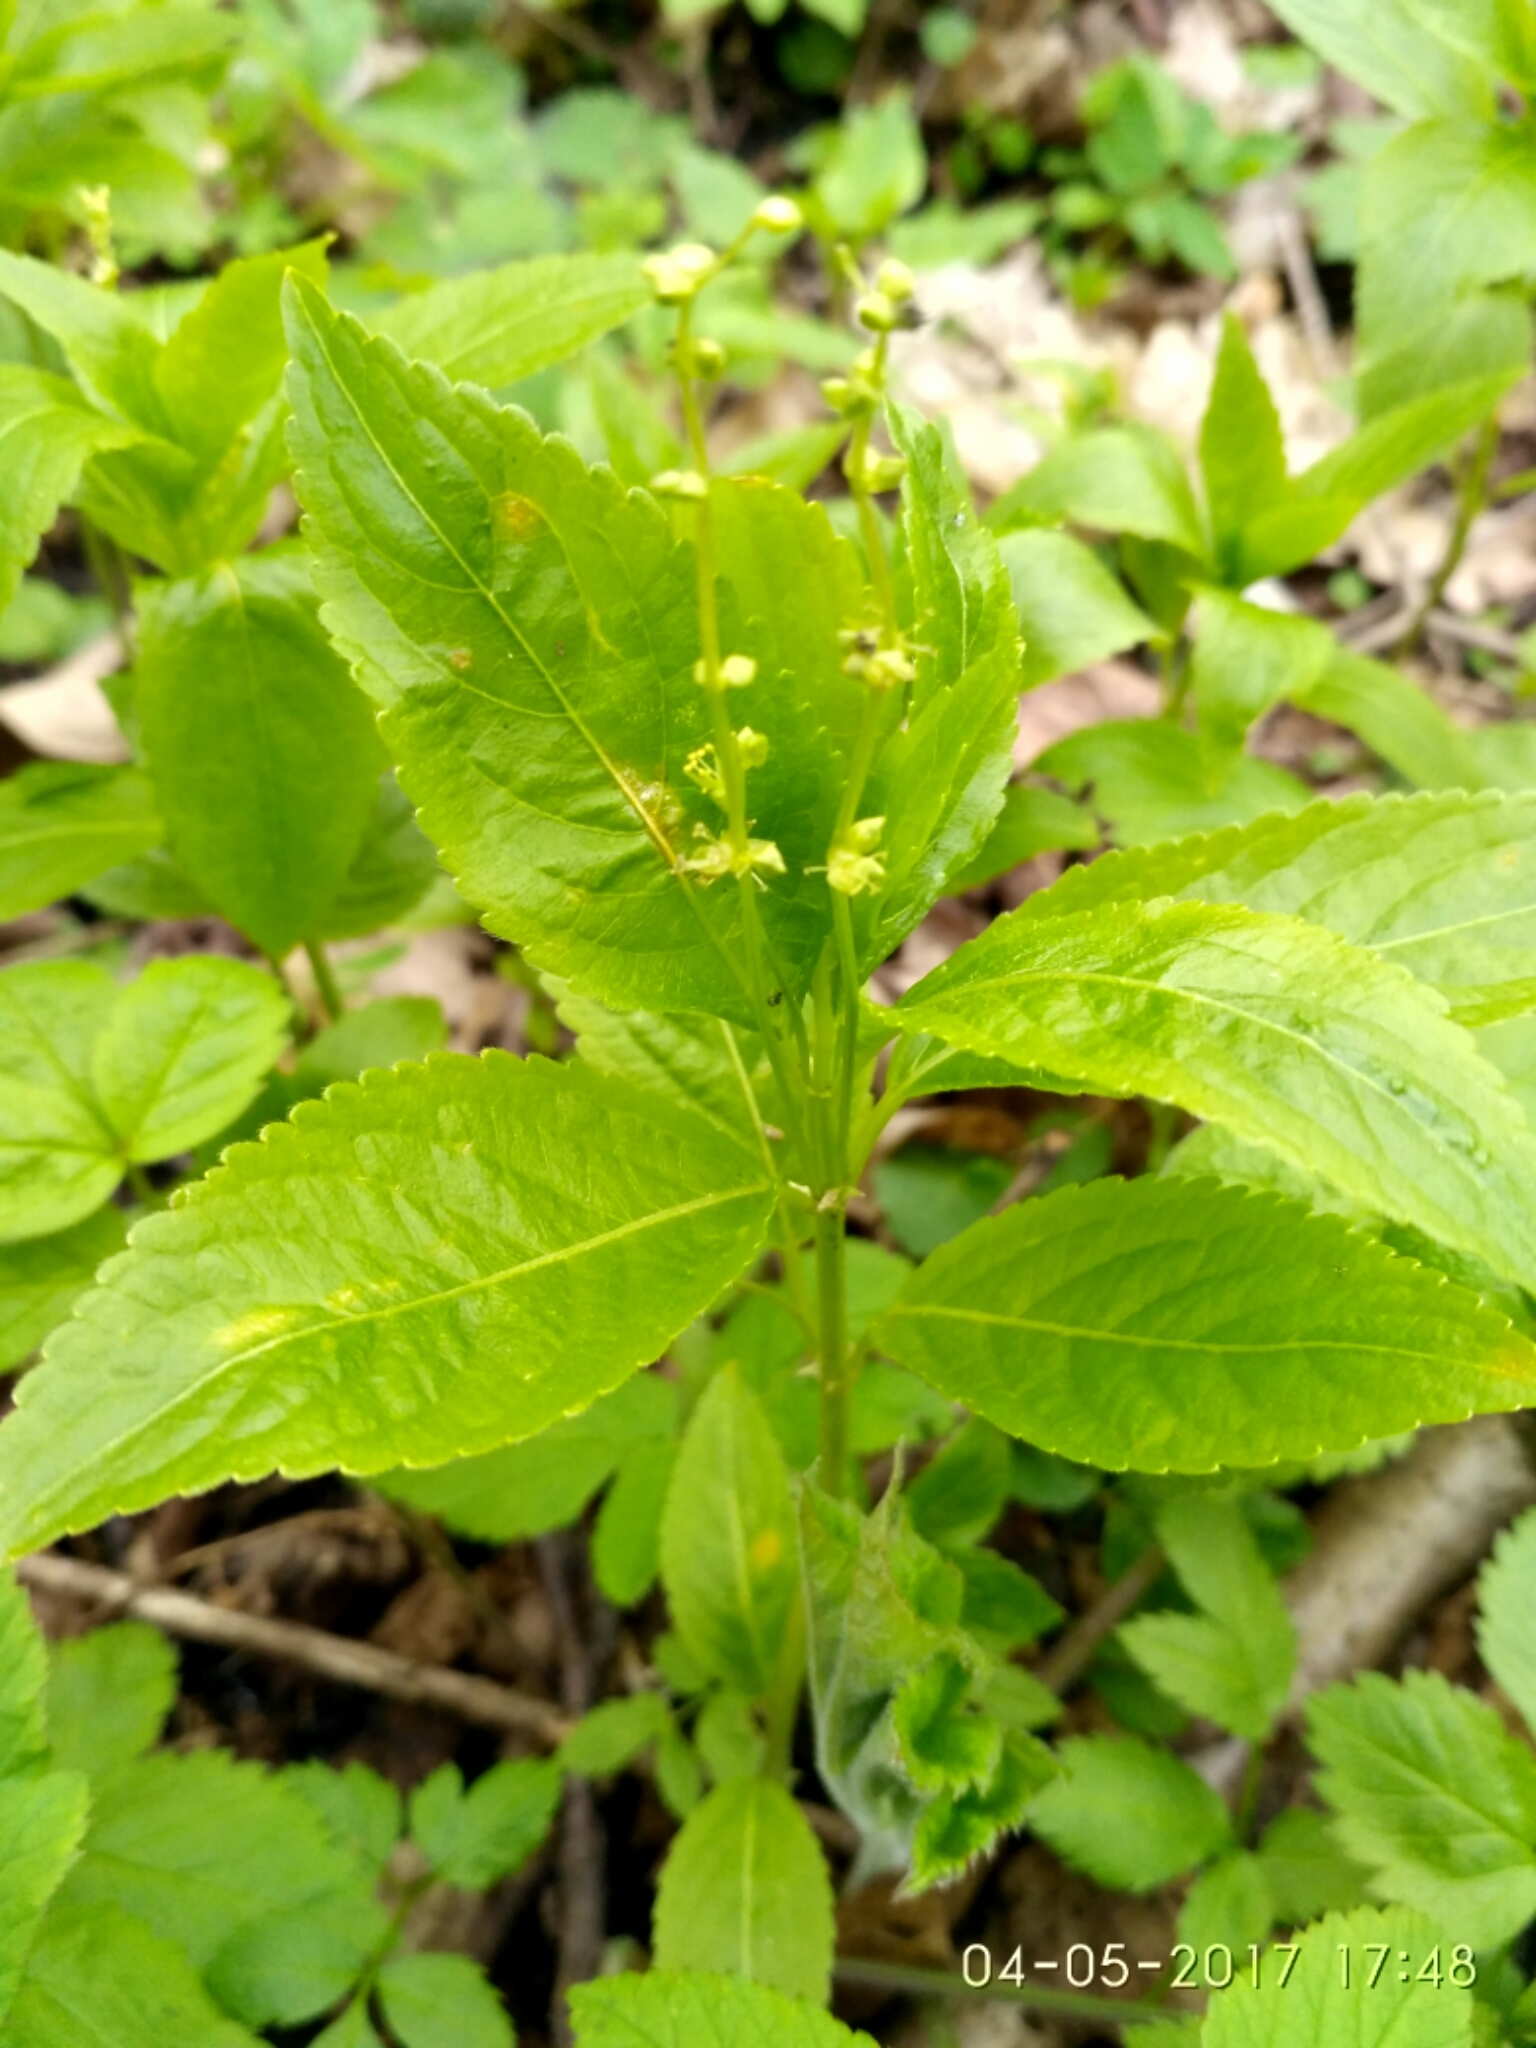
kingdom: Plantae
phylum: Tracheophyta
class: Magnoliopsida
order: Malpighiales
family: Euphorbiaceae
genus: Mercurialis
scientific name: Mercurialis perennis
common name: Dog mercury
